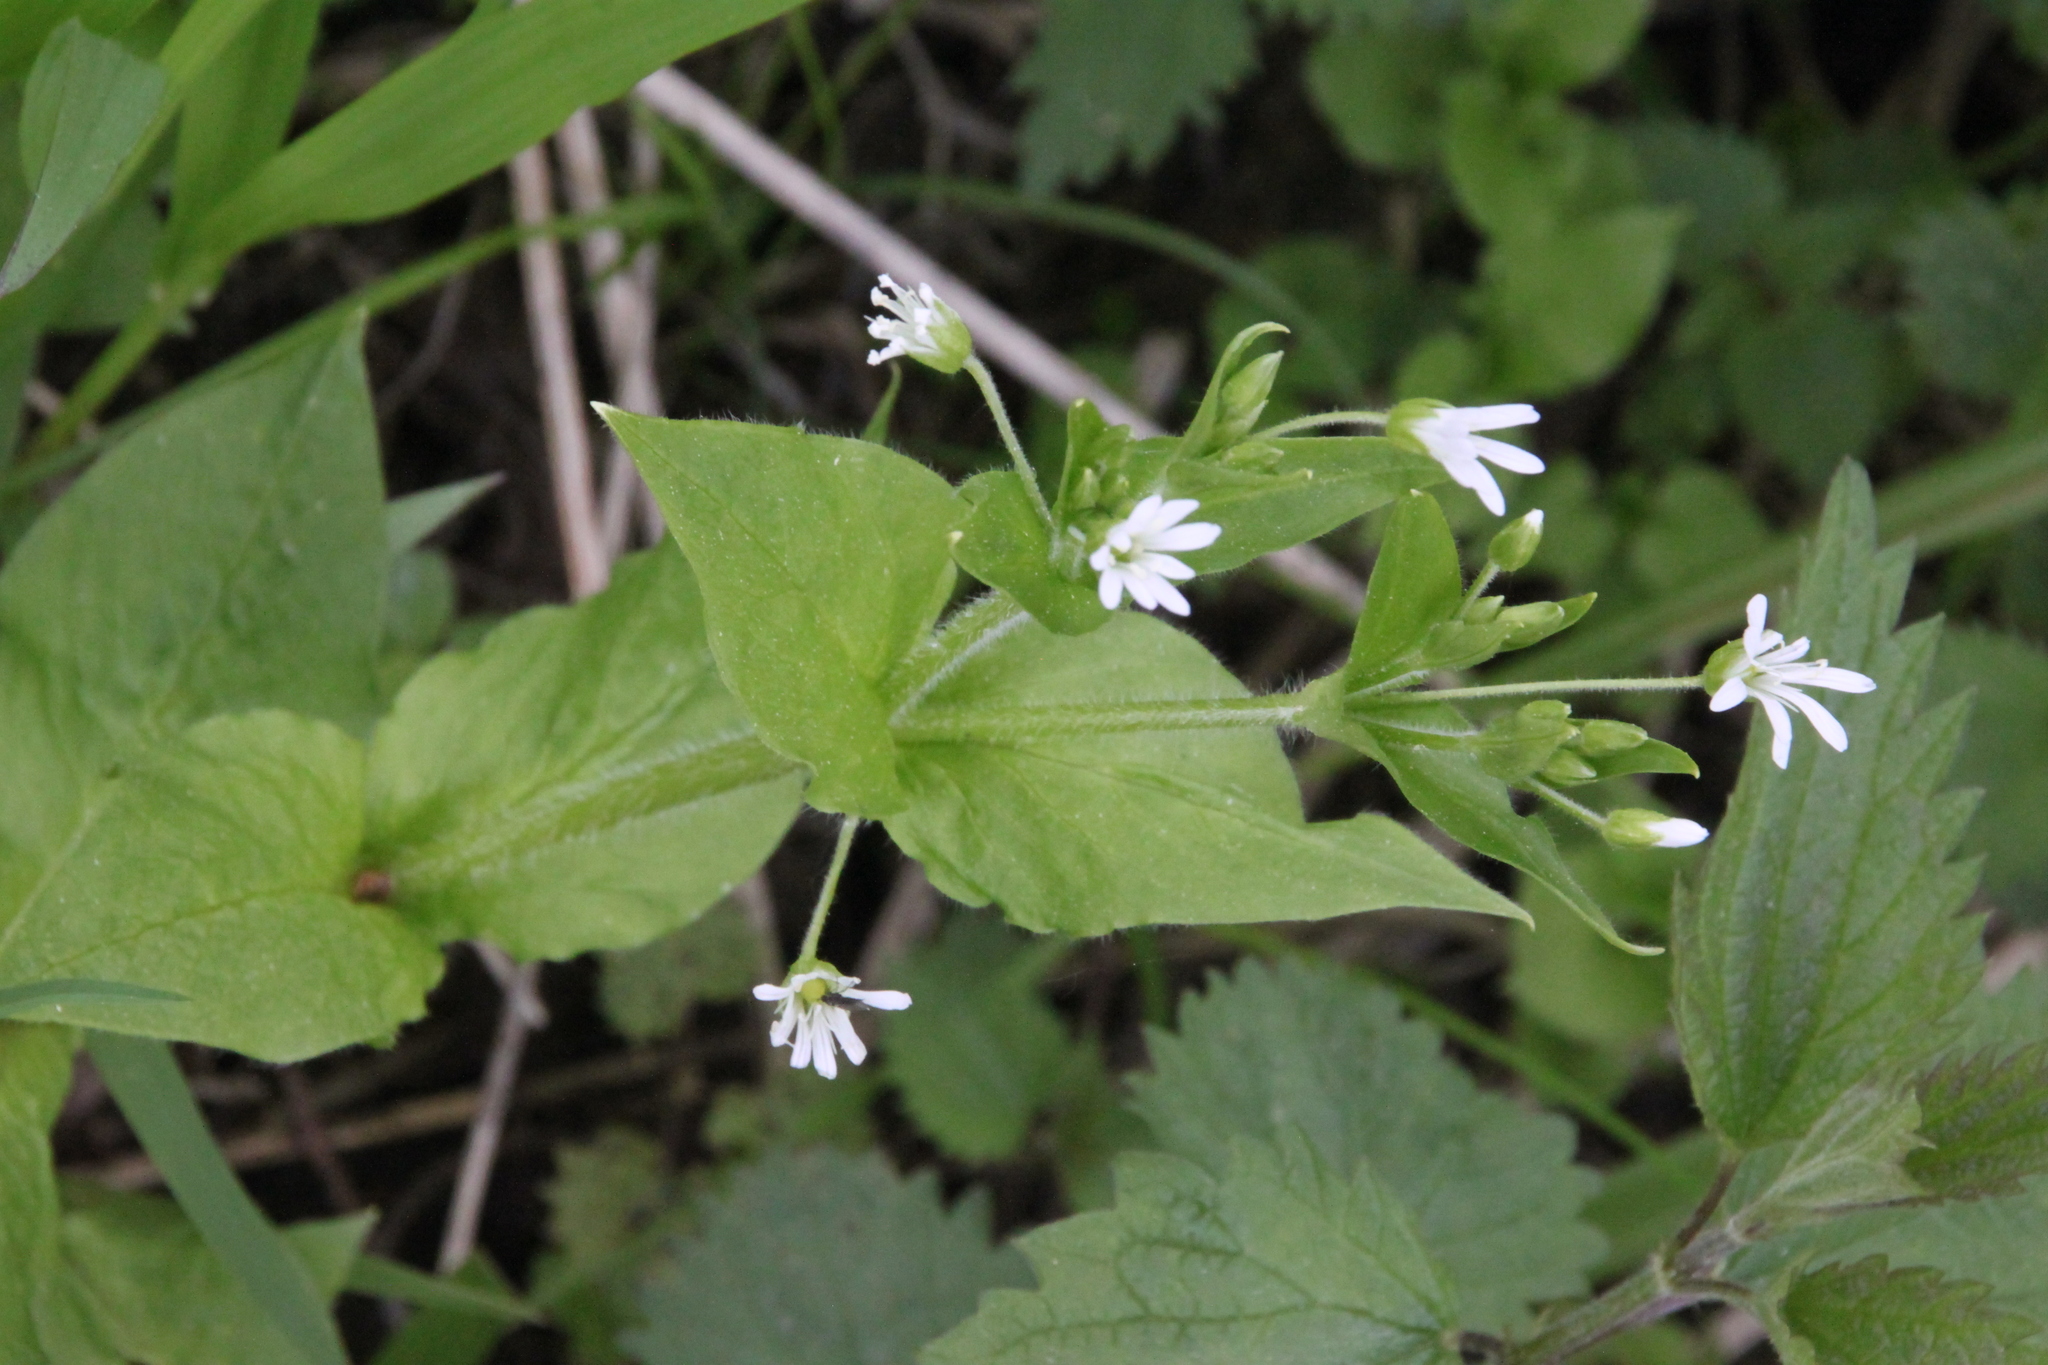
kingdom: Plantae
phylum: Tracheophyta
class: Magnoliopsida
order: Caryophyllales
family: Caryophyllaceae
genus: Stellaria
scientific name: Stellaria nemorum
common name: Wood stitchwort
